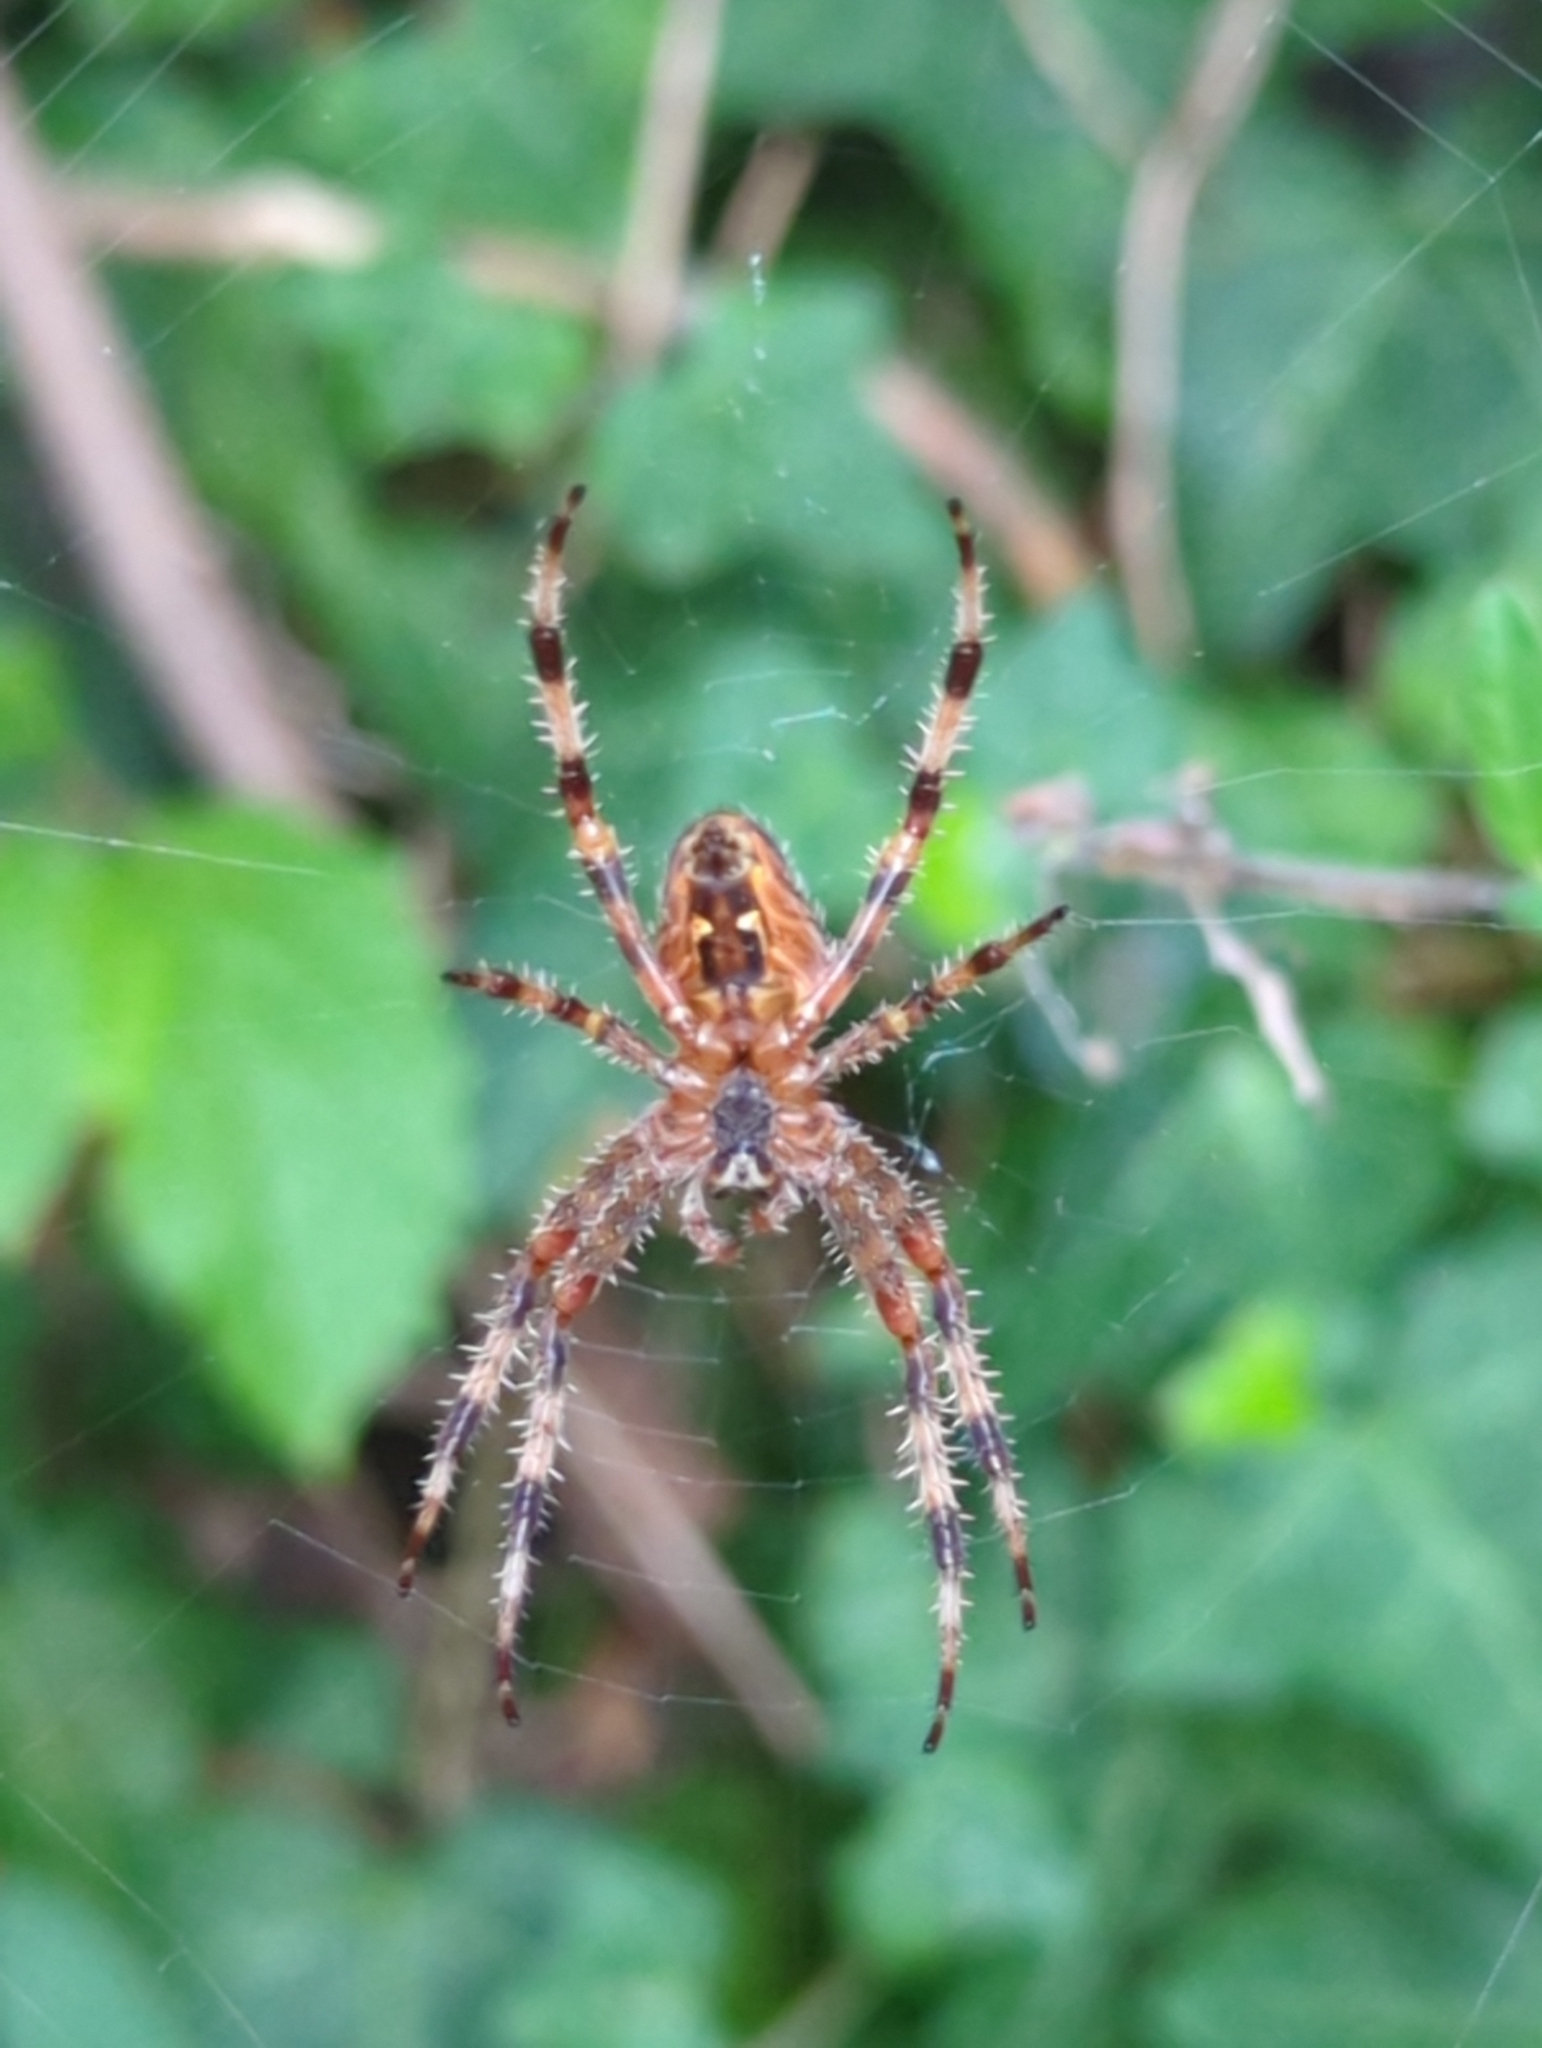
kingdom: Animalia
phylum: Arthropoda
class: Arachnida
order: Araneae
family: Araneidae
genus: Araneus
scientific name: Araneus diadematus
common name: Cross orbweaver
